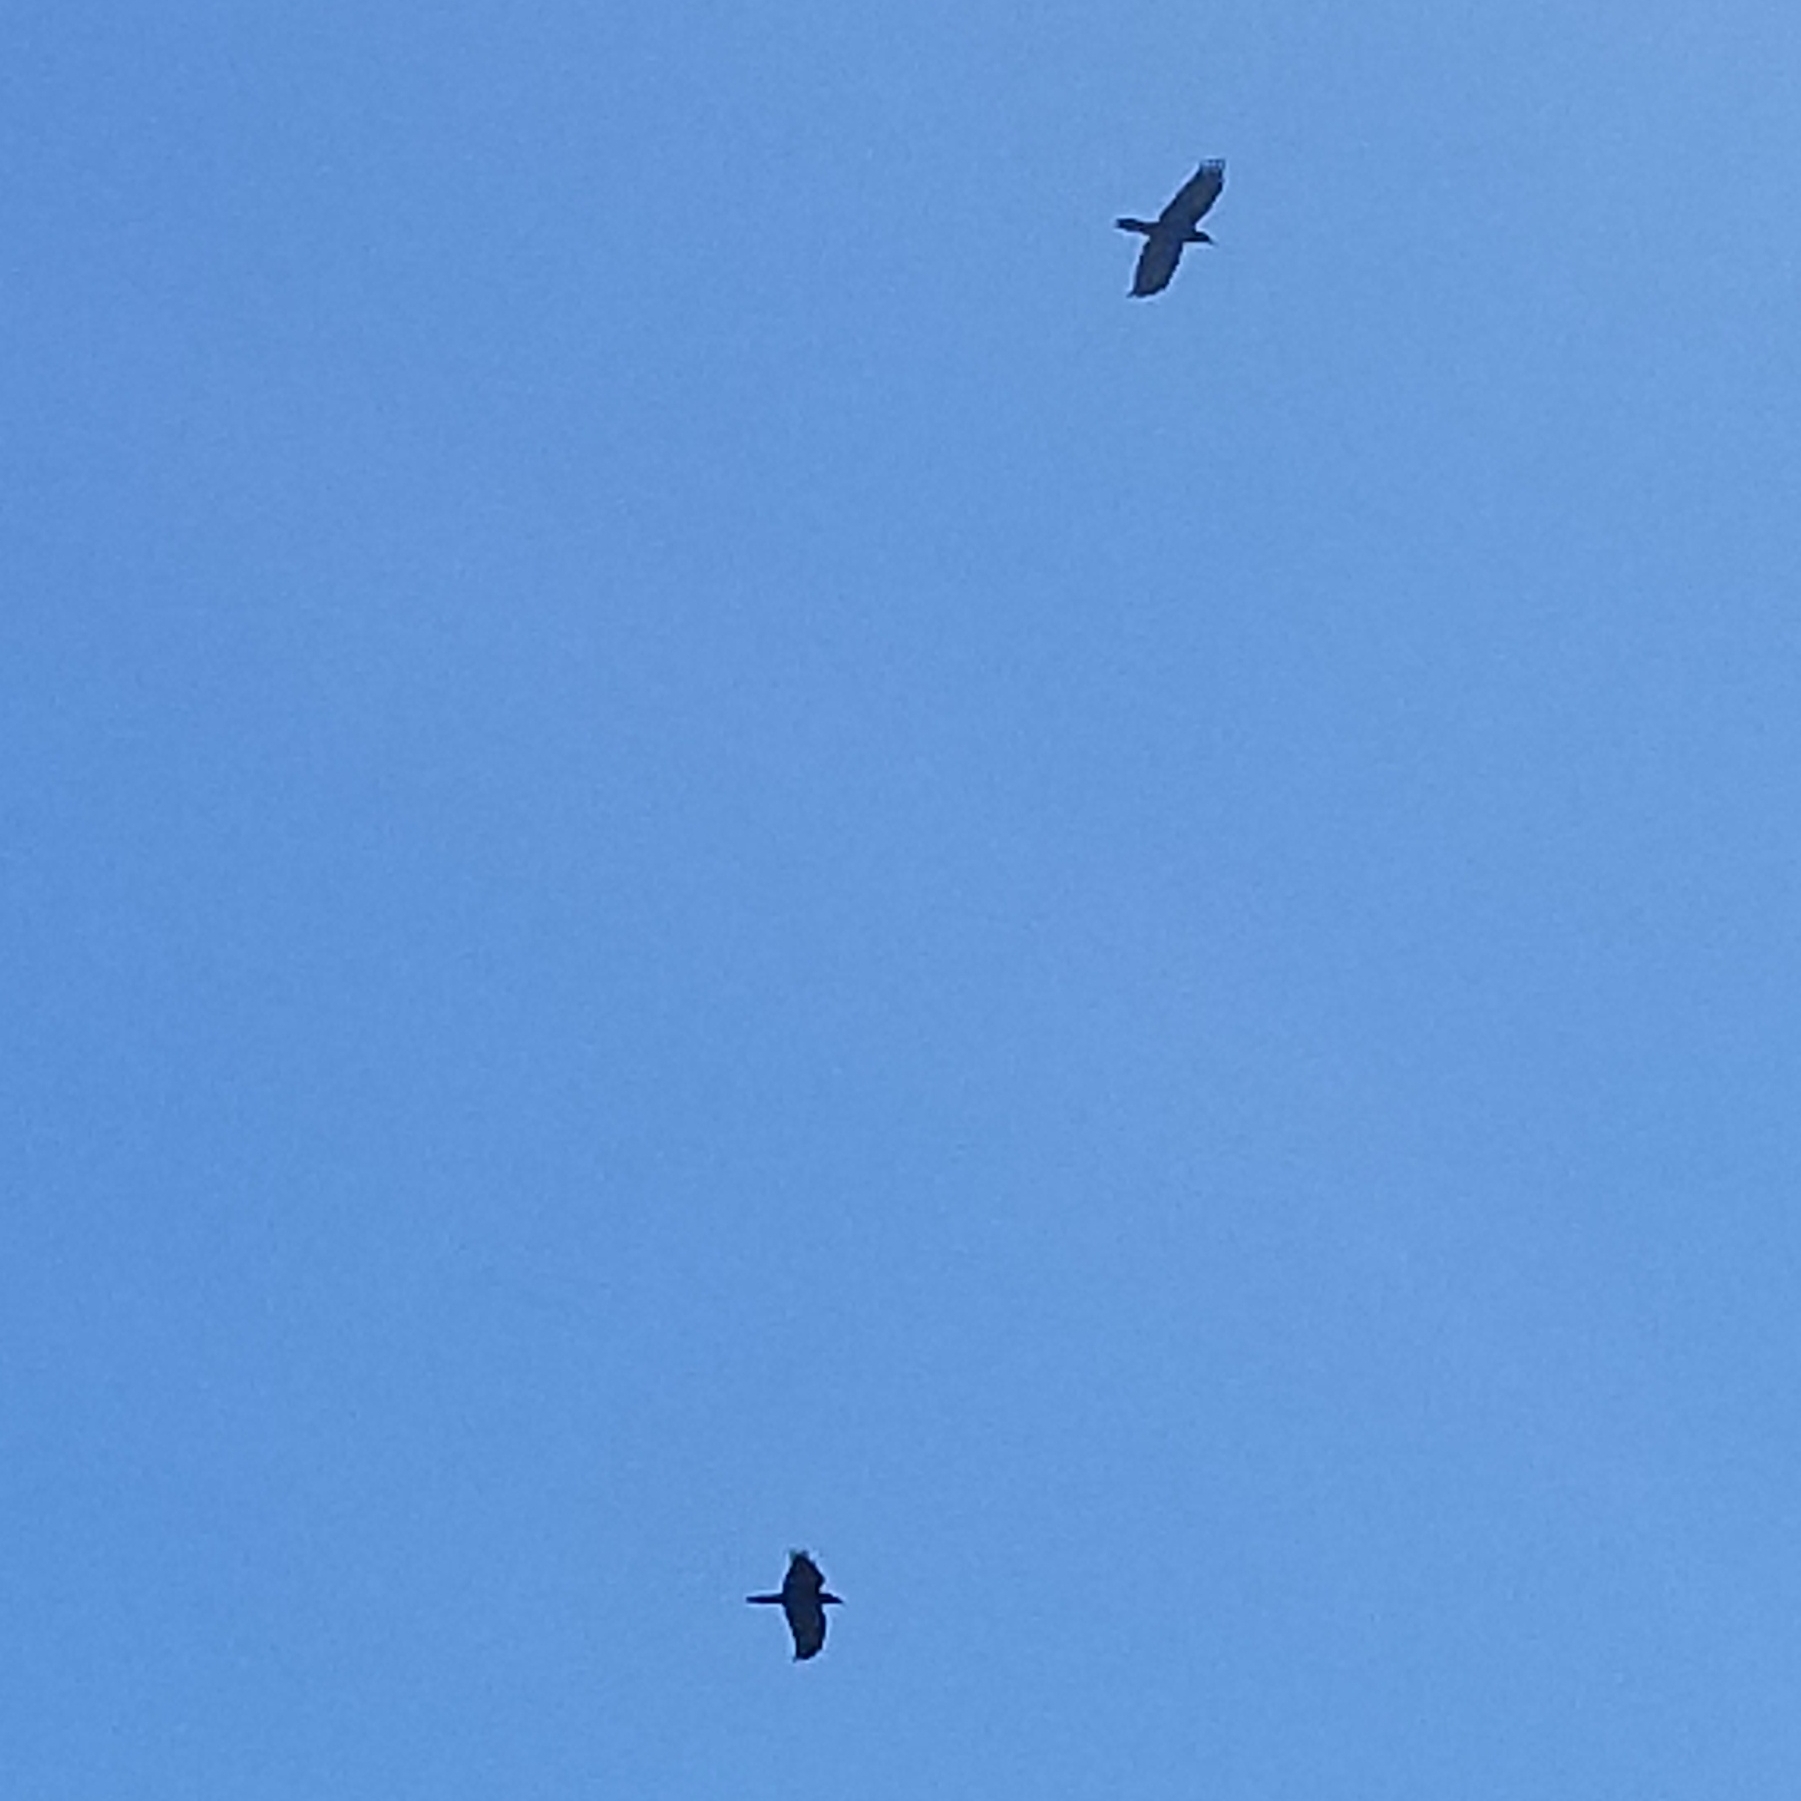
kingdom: Animalia
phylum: Chordata
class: Aves
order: Passeriformes
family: Corvidae
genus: Corvus
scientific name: Corvus corax
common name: Common raven
